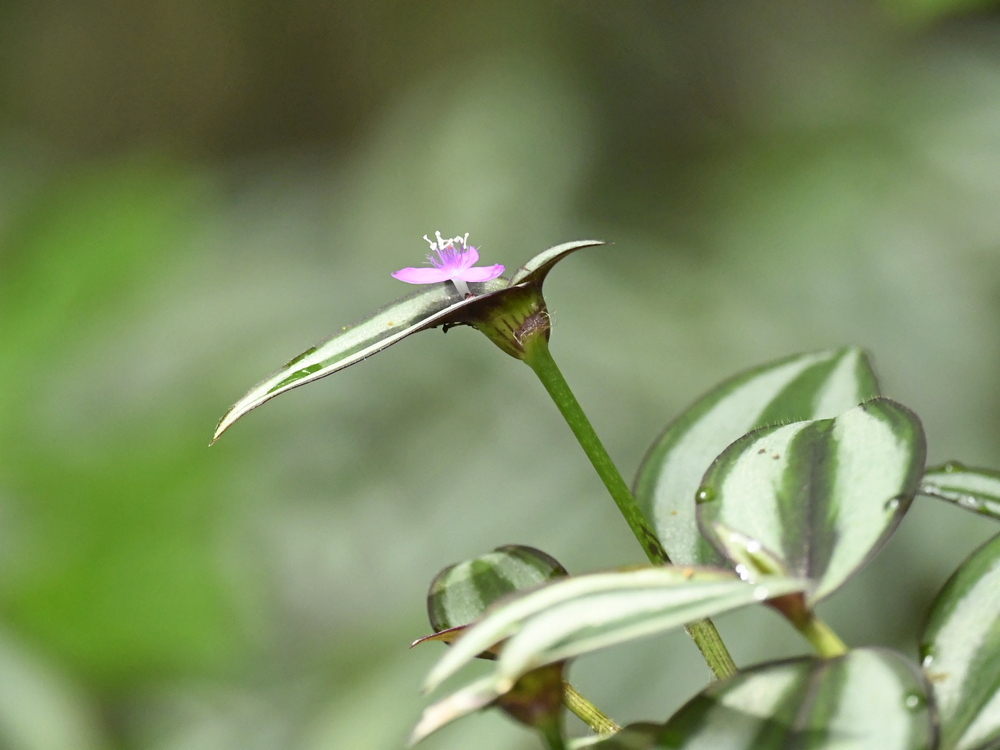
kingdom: Plantae
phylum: Tracheophyta
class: Liliopsida
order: Commelinales
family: Commelinaceae
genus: Tradescantia
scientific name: Tradescantia zebrina
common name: Inchplant
